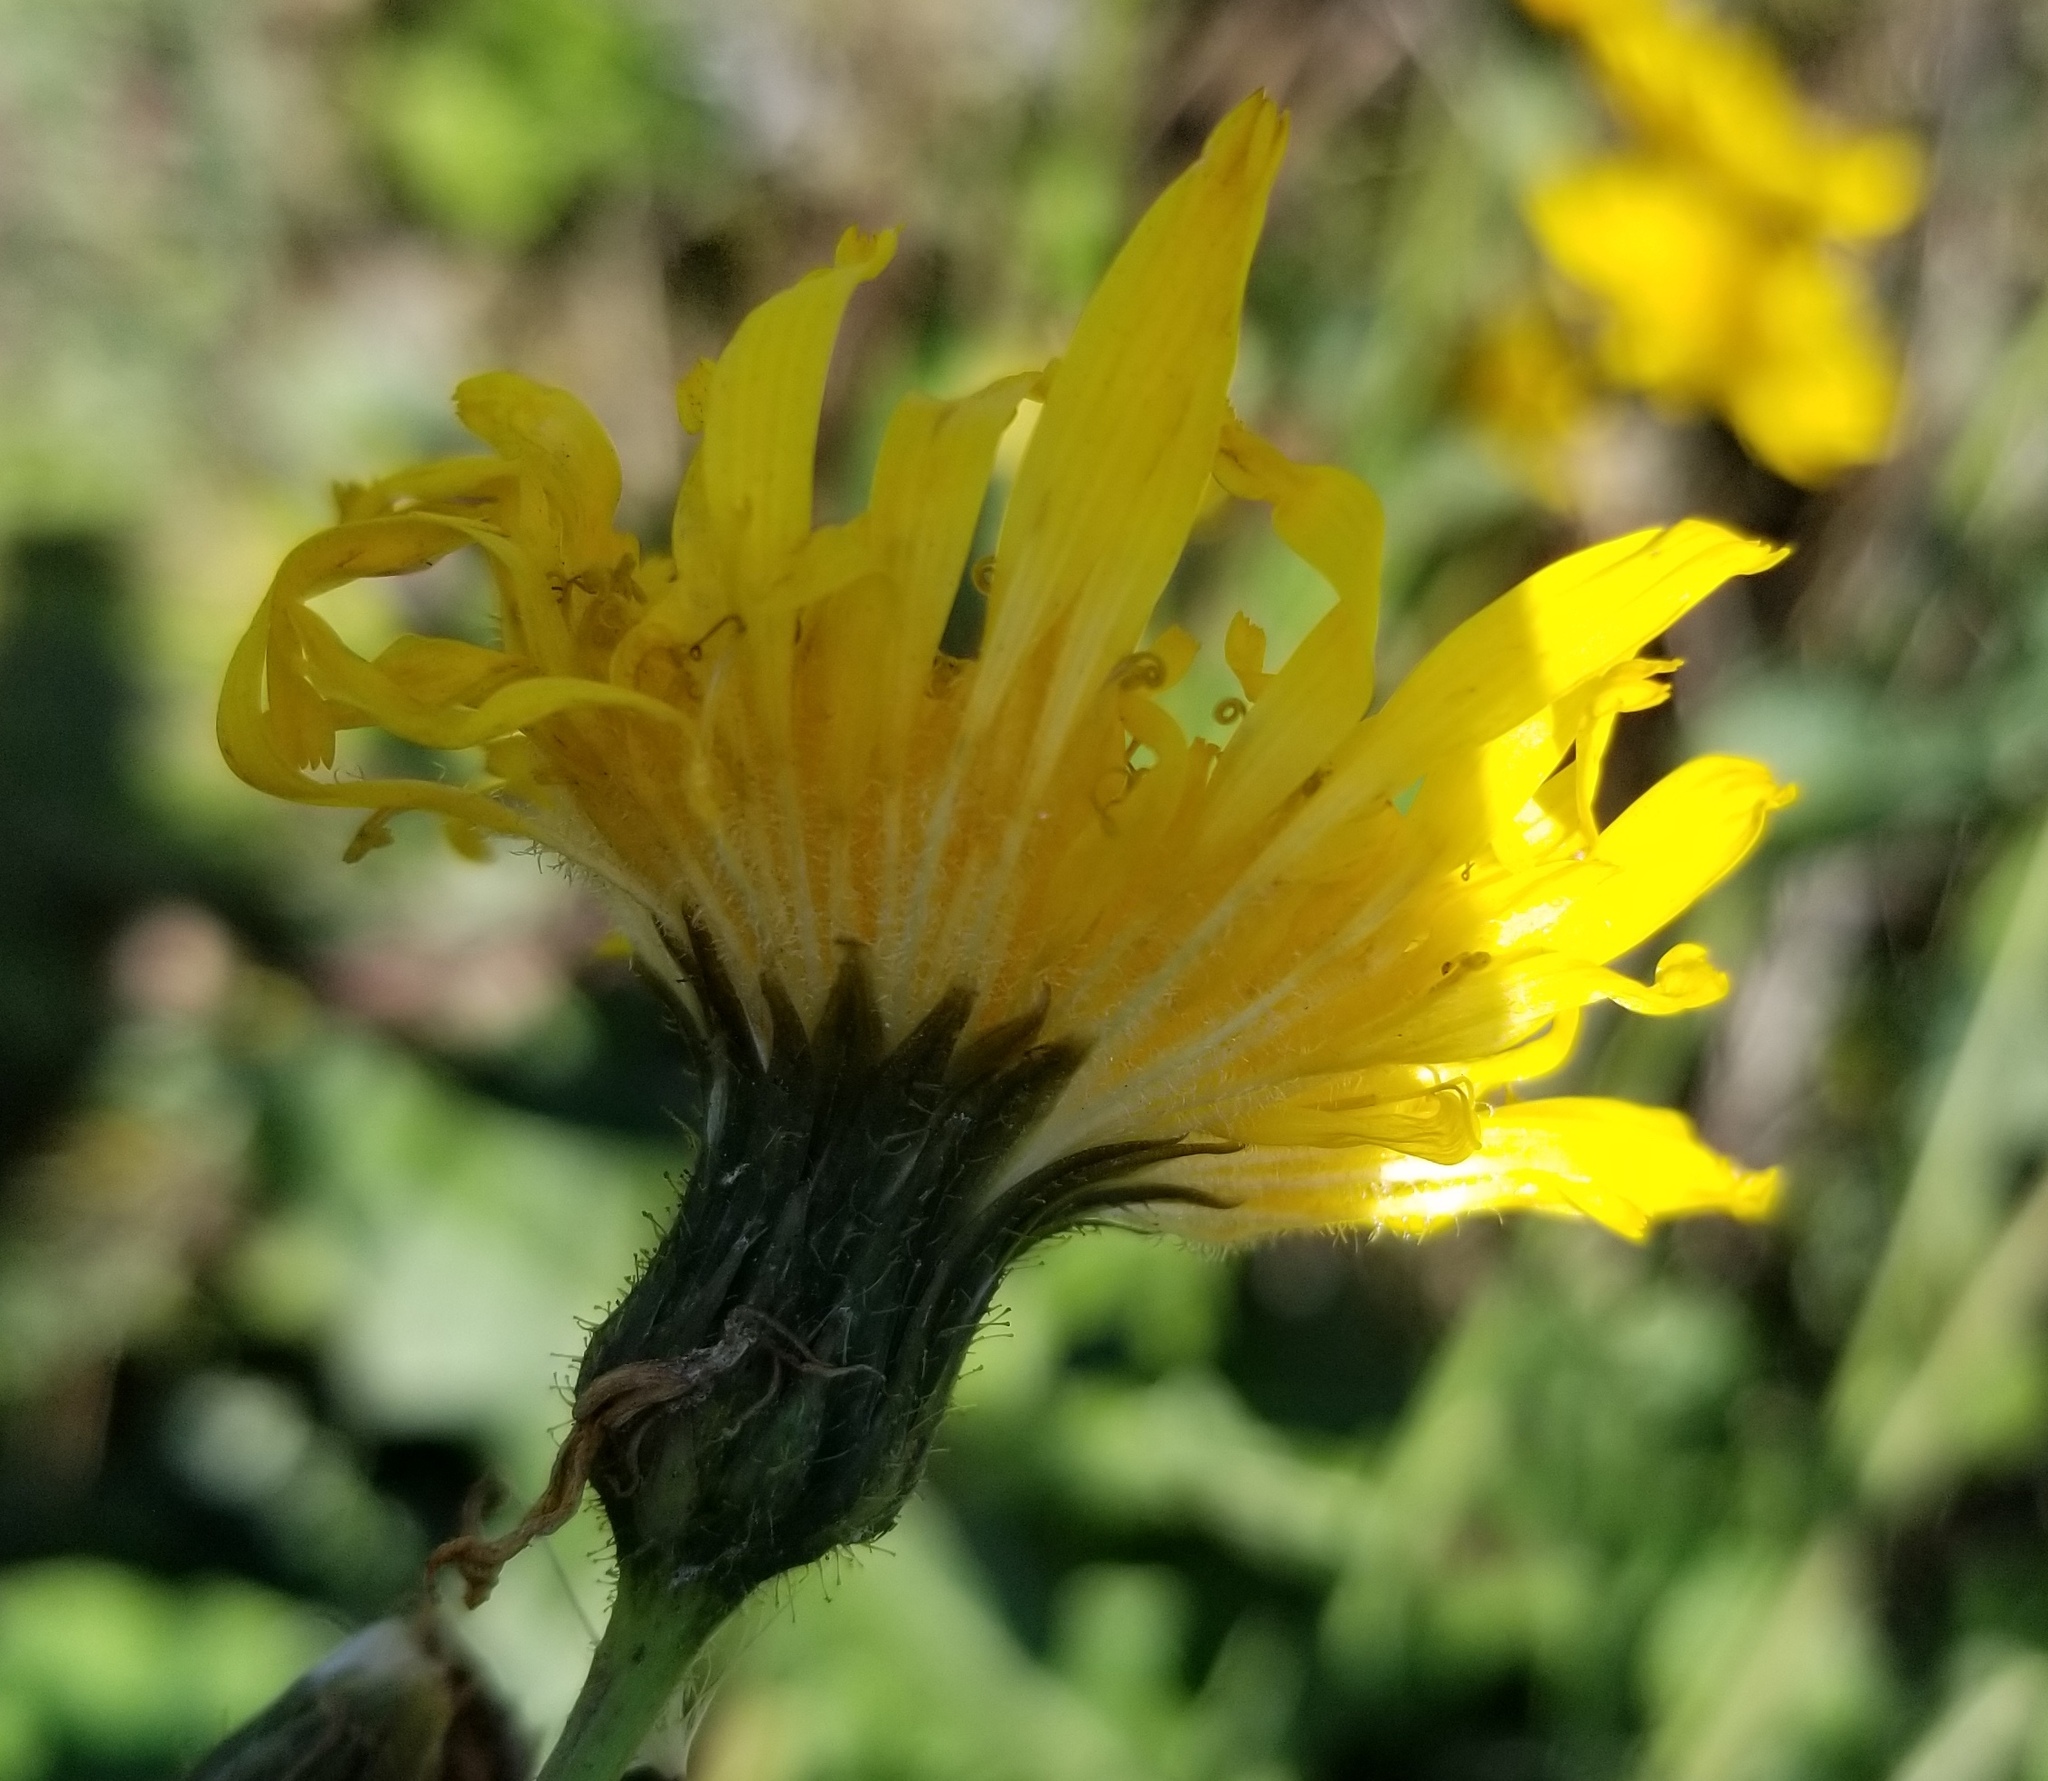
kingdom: Plantae
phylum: Tracheophyta
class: Magnoliopsida
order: Asterales
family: Asteraceae
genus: Sonchus
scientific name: Sonchus arvensis
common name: Perennial sow-thistle
